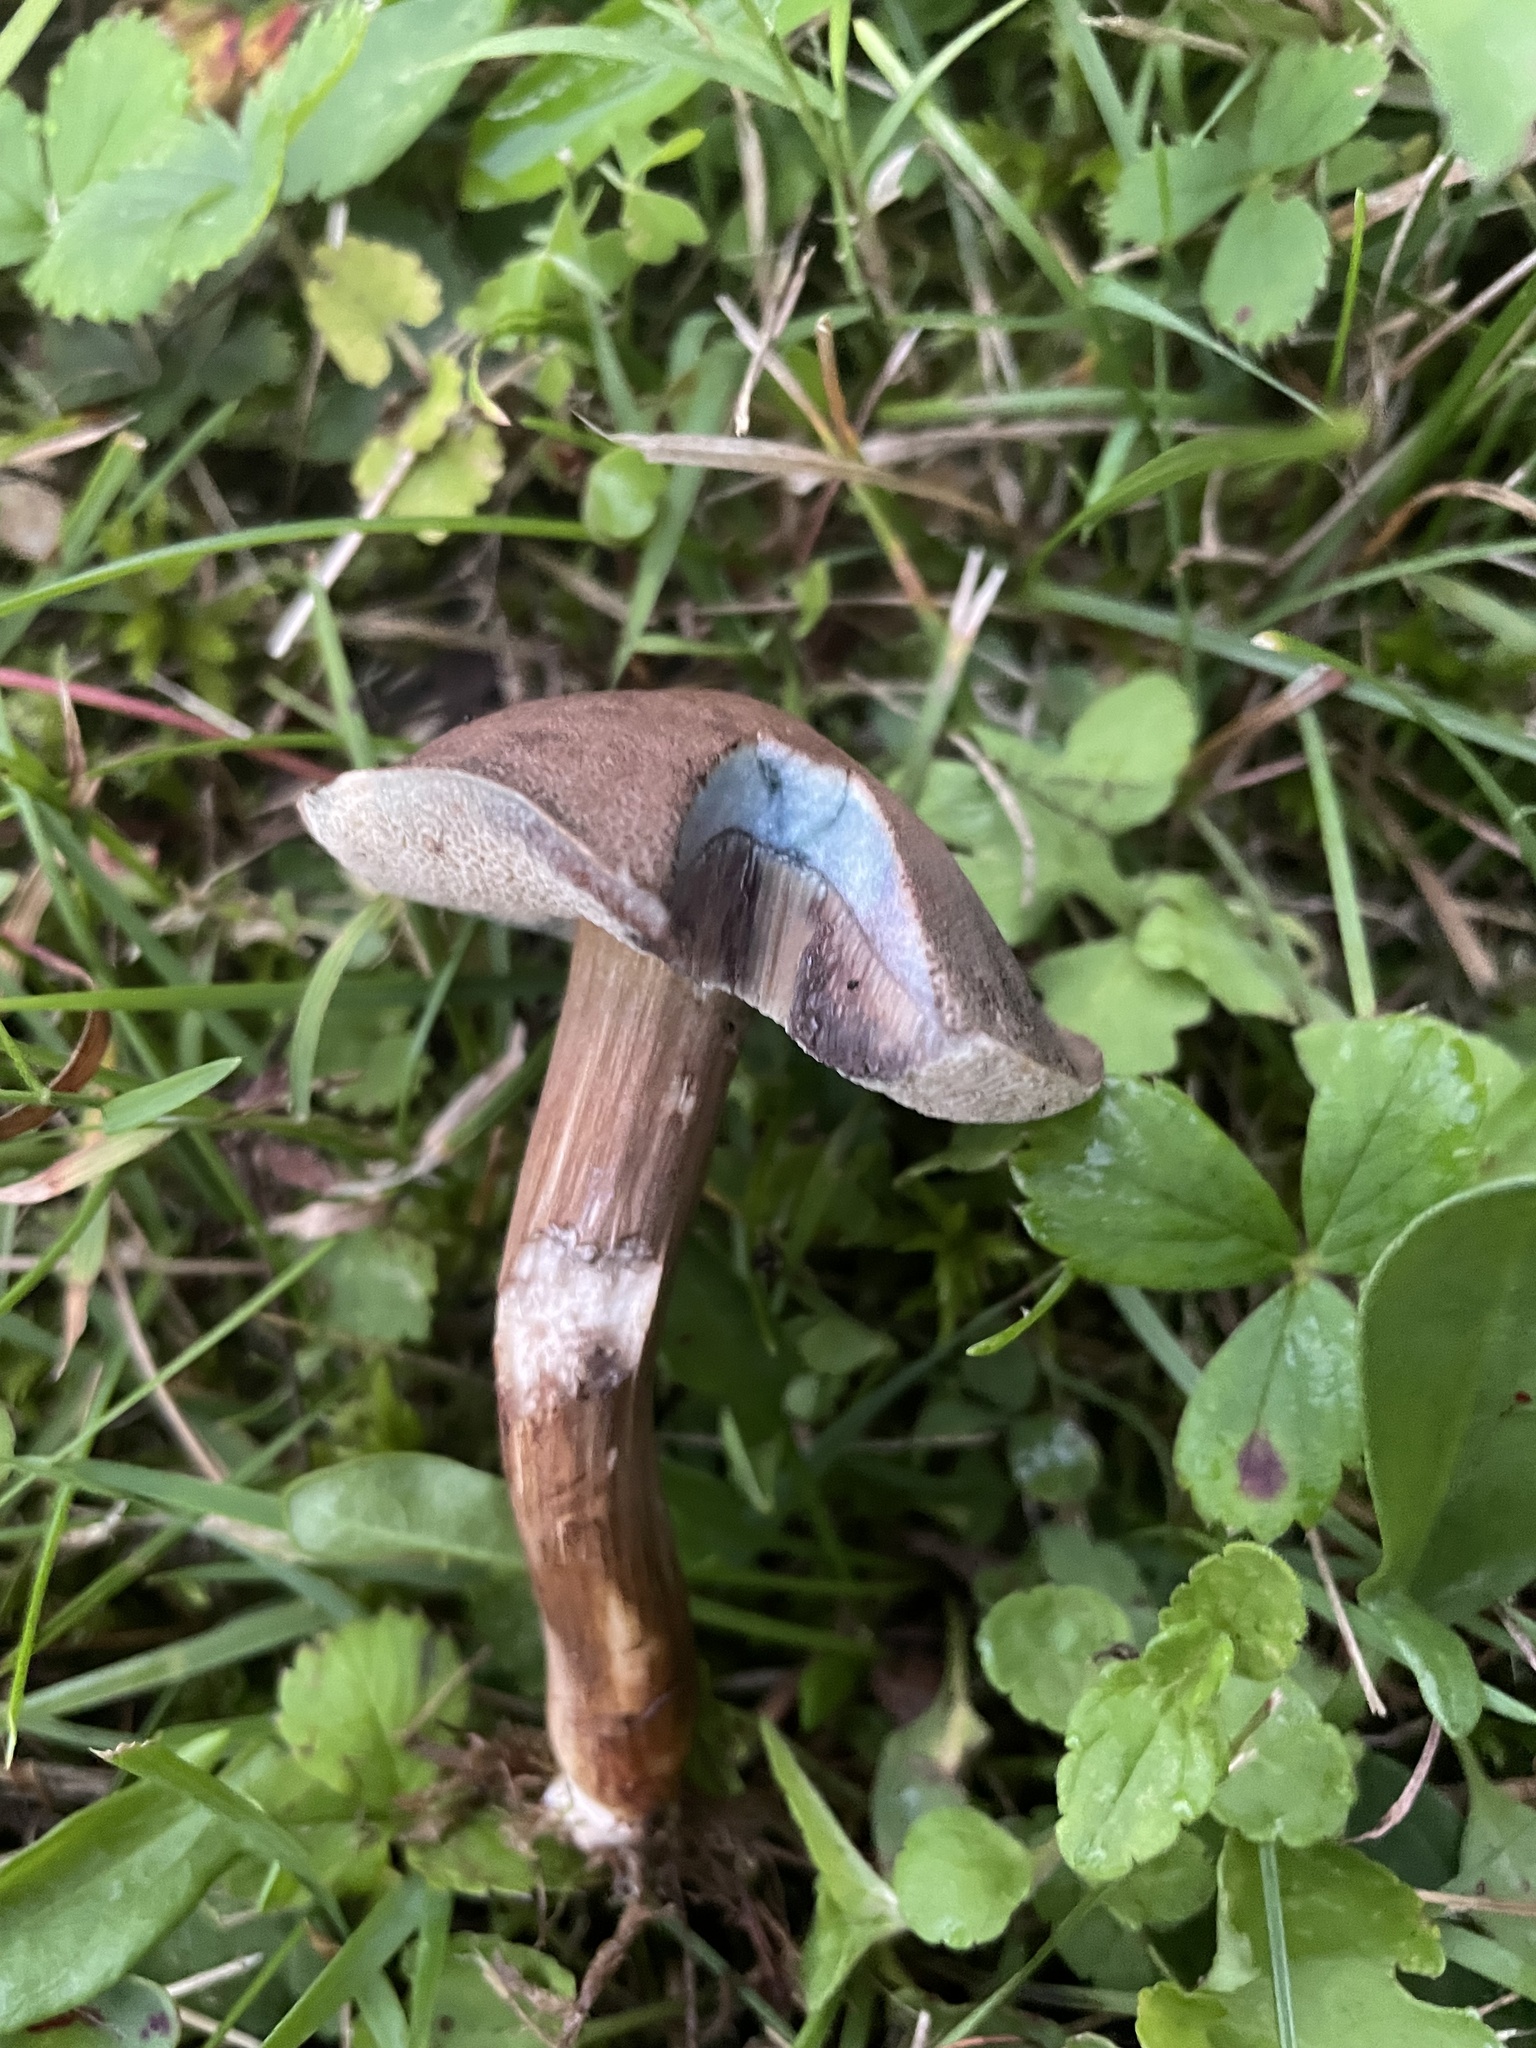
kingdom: Fungi
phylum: Basidiomycota
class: Agaricomycetes
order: Boletales
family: Boletaceae
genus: Porphyrellus
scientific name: Porphyrellus porphyrosporus
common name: Dusky bolete
